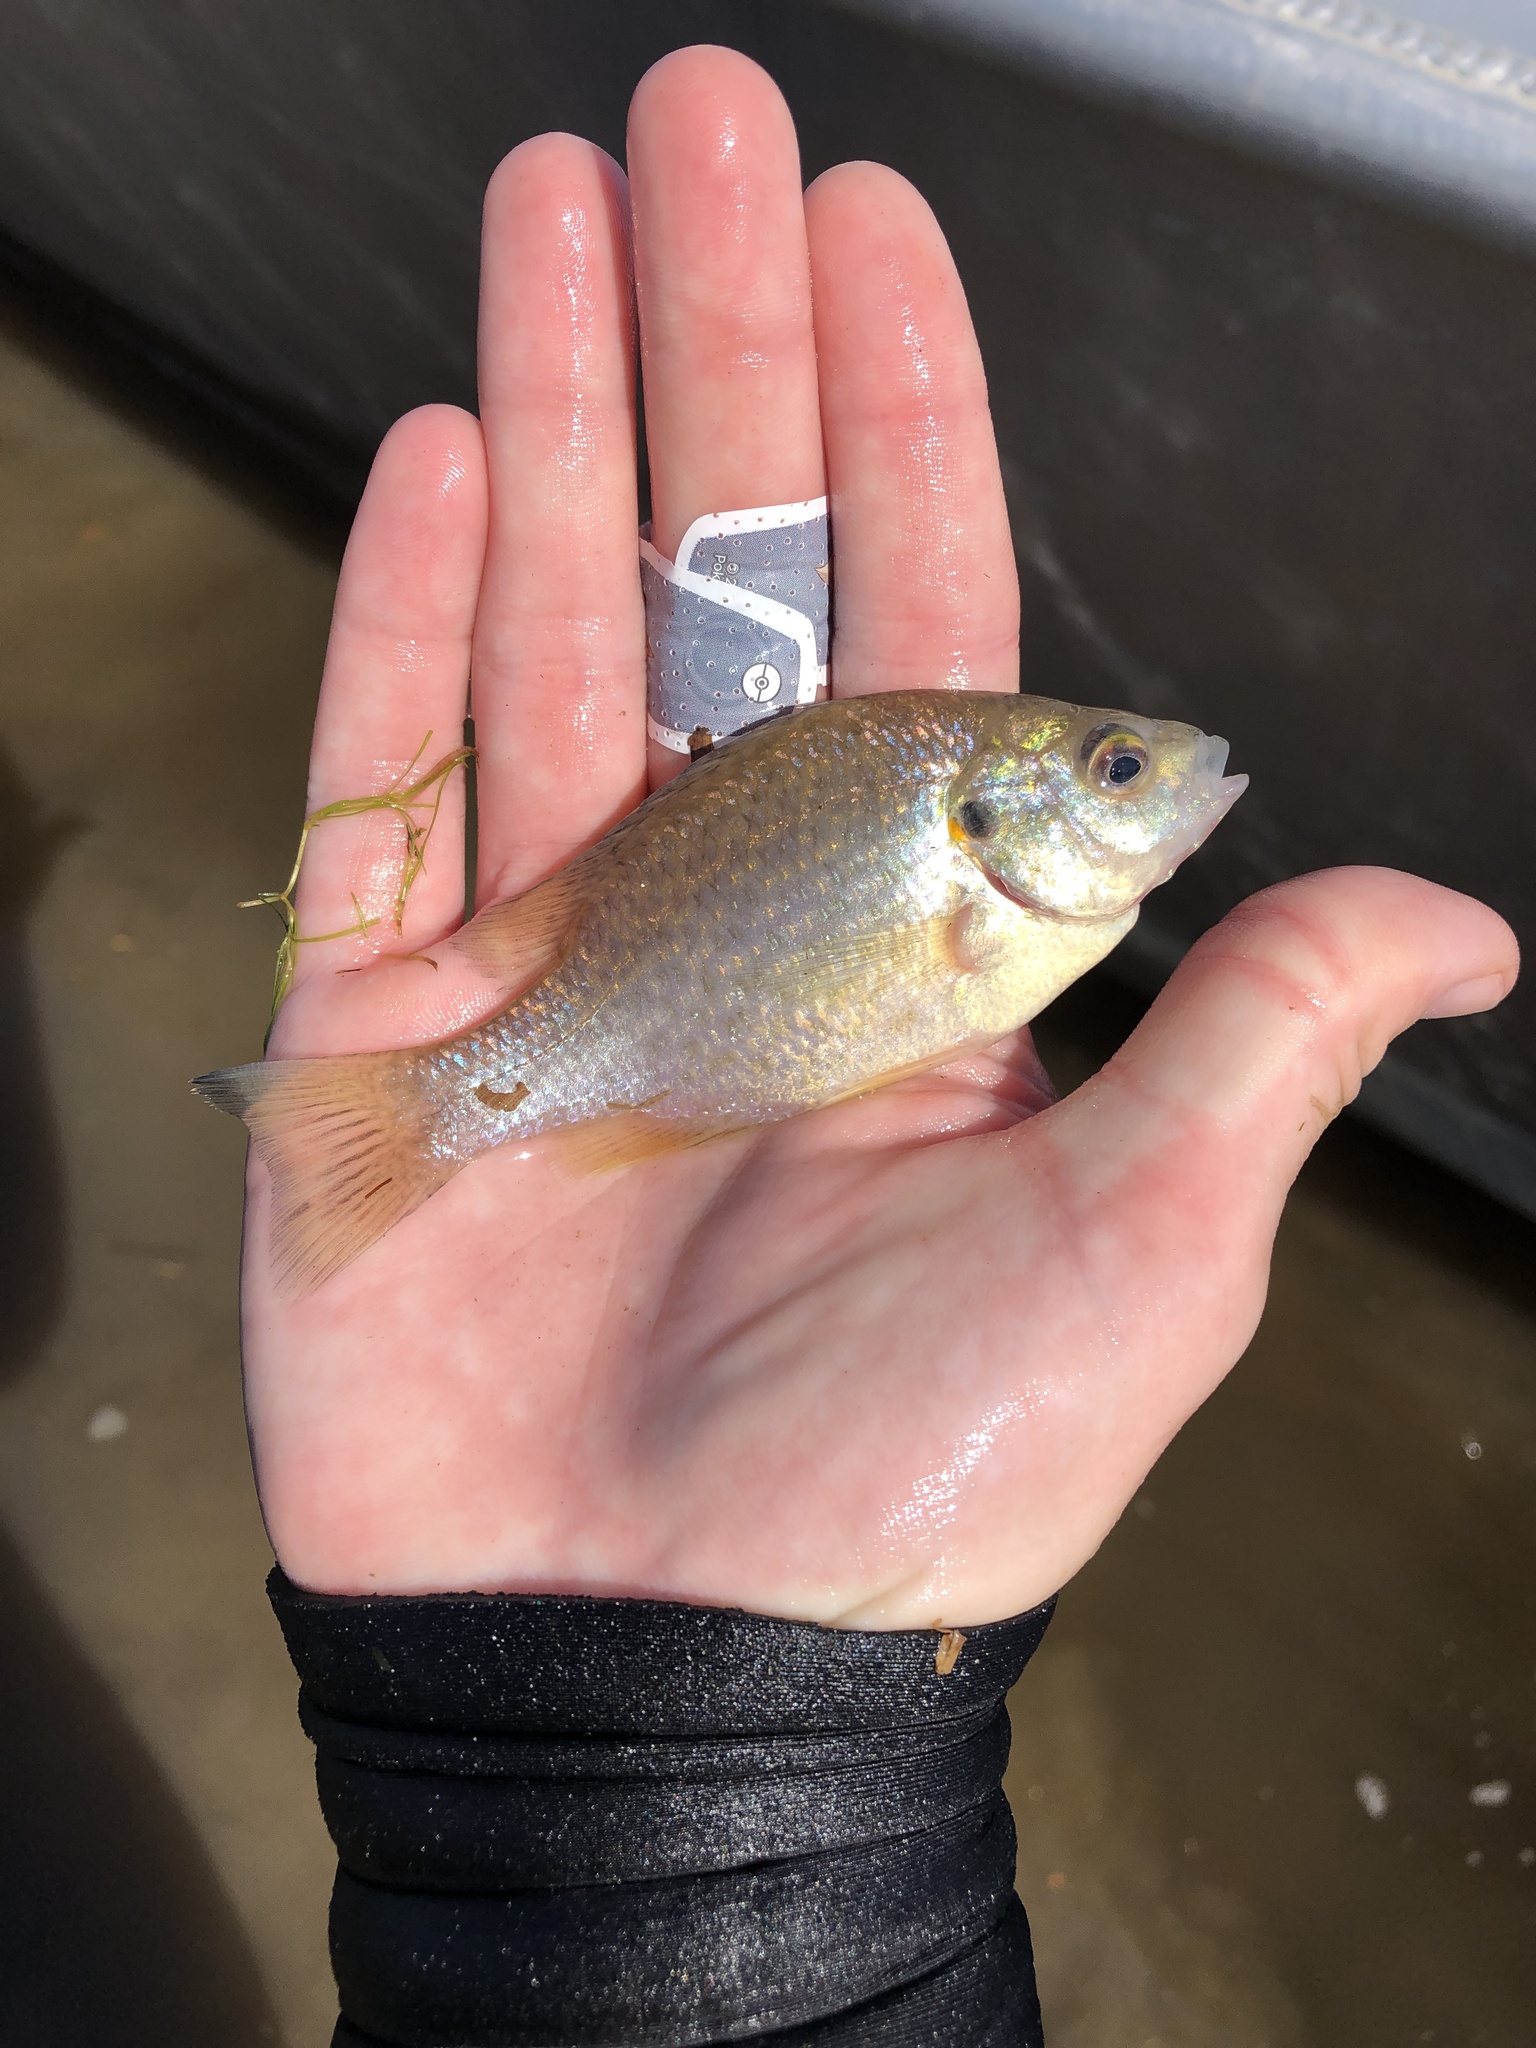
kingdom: Animalia
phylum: Chordata
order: Perciformes
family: Centrarchidae
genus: Lepomis
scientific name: Lepomis microlophus
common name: Redear sunfish
